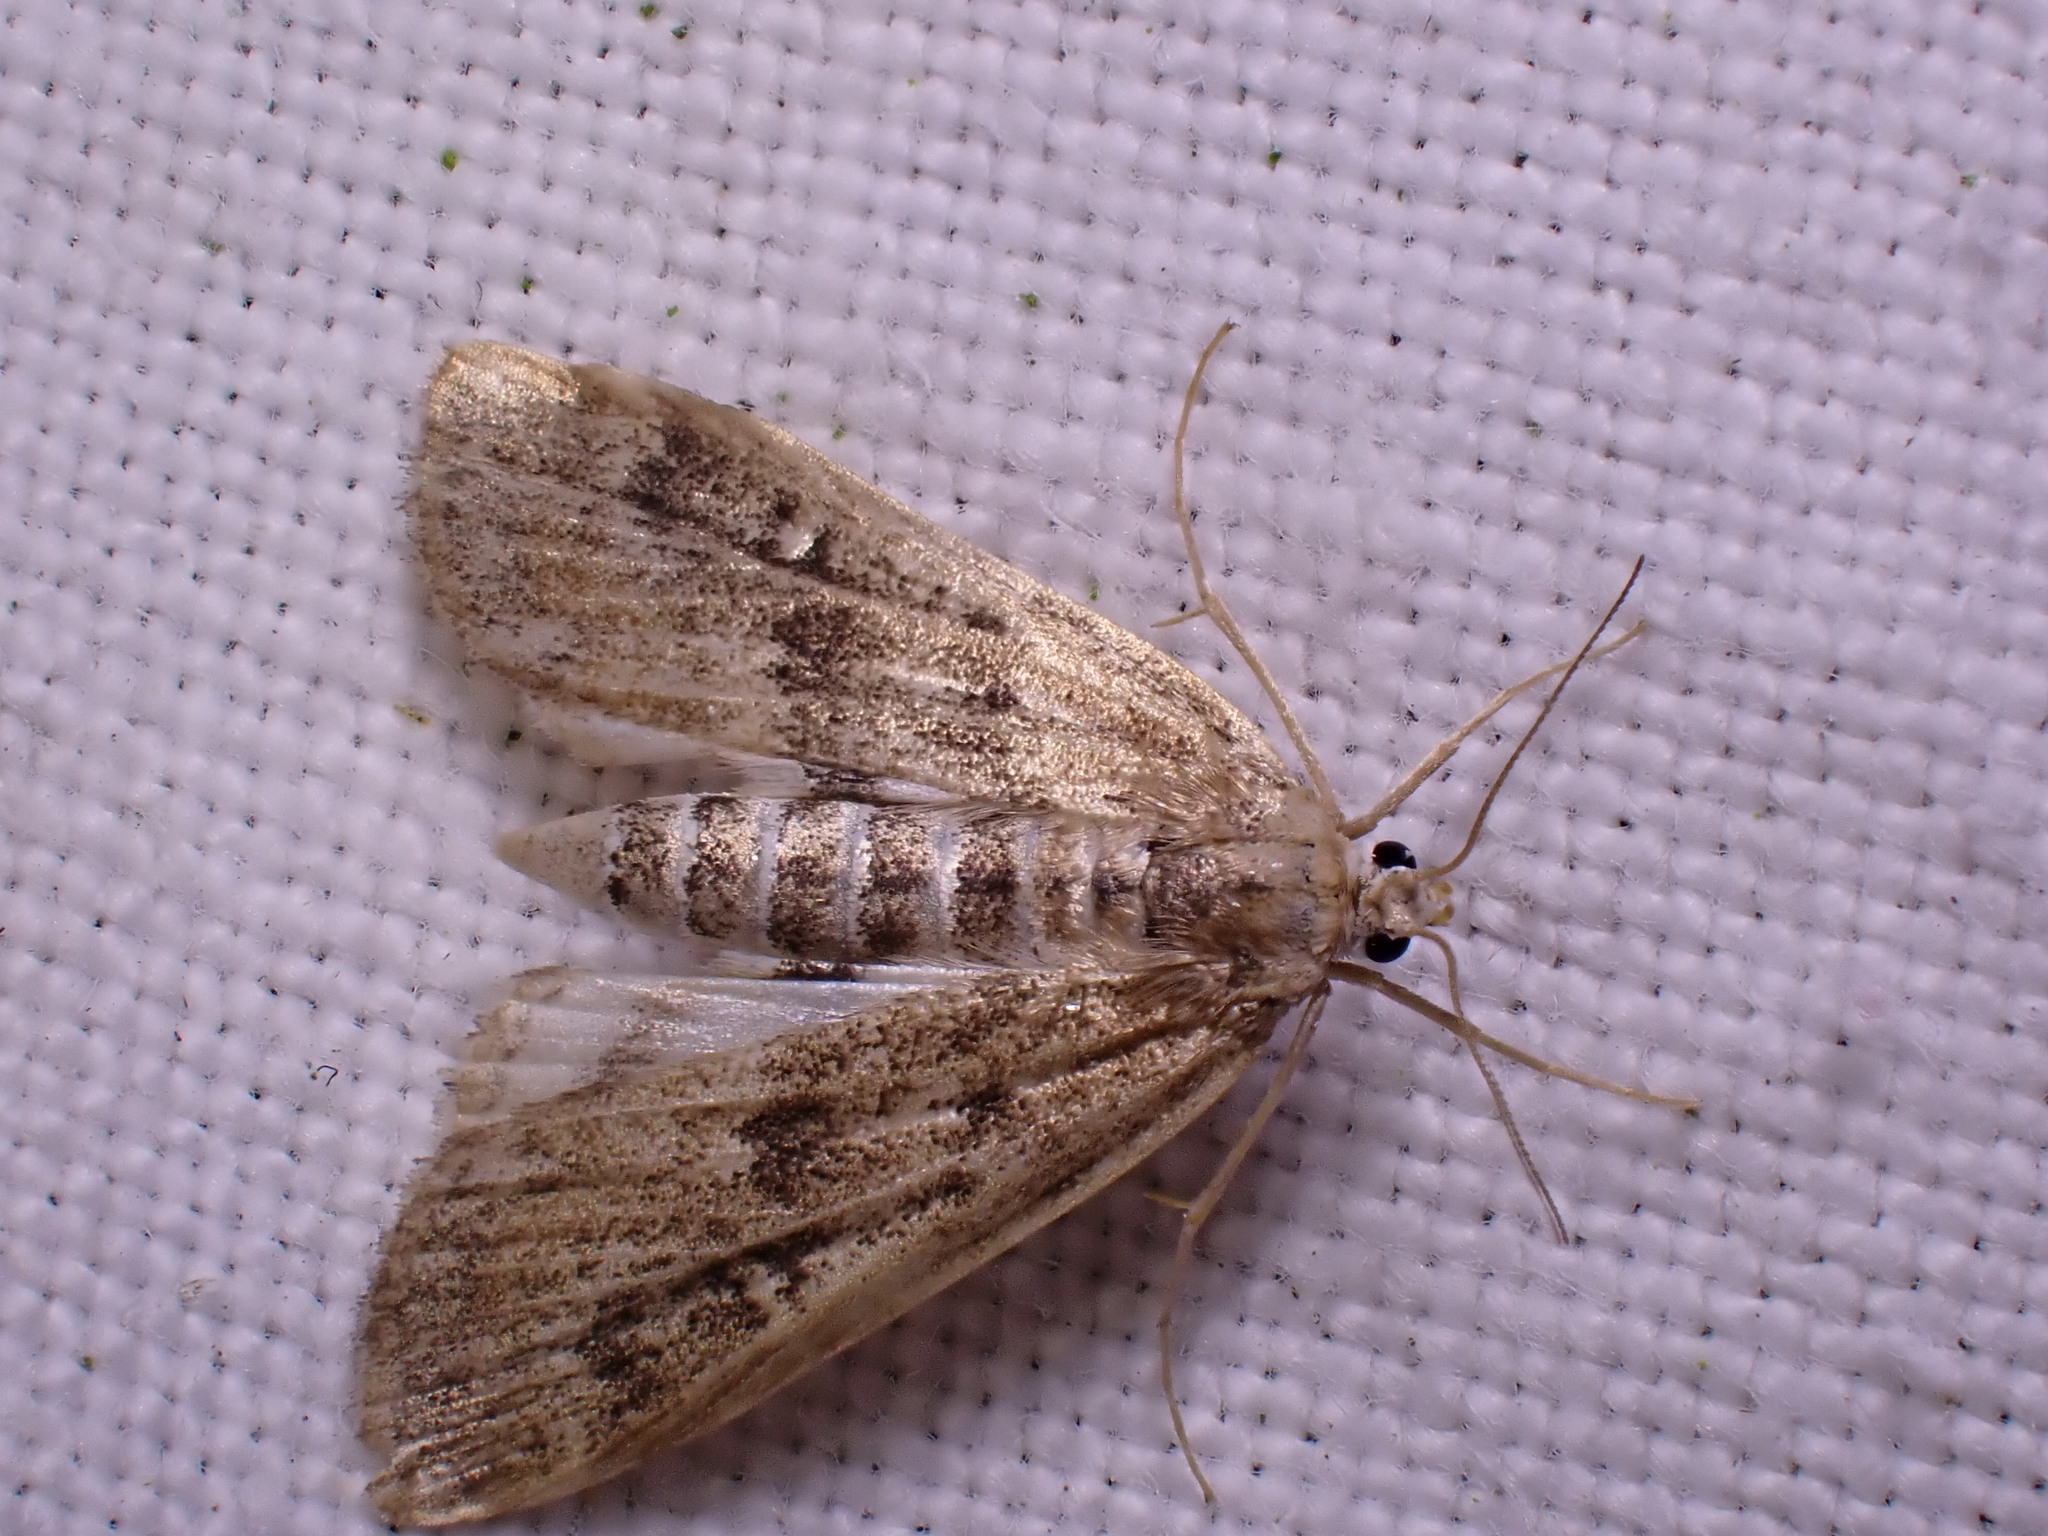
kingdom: Animalia
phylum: Arthropoda
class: Insecta
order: Lepidoptera
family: Crambidae
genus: Parapoynx
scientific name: Parapoynx stratiotata
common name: Ringed china-mark
